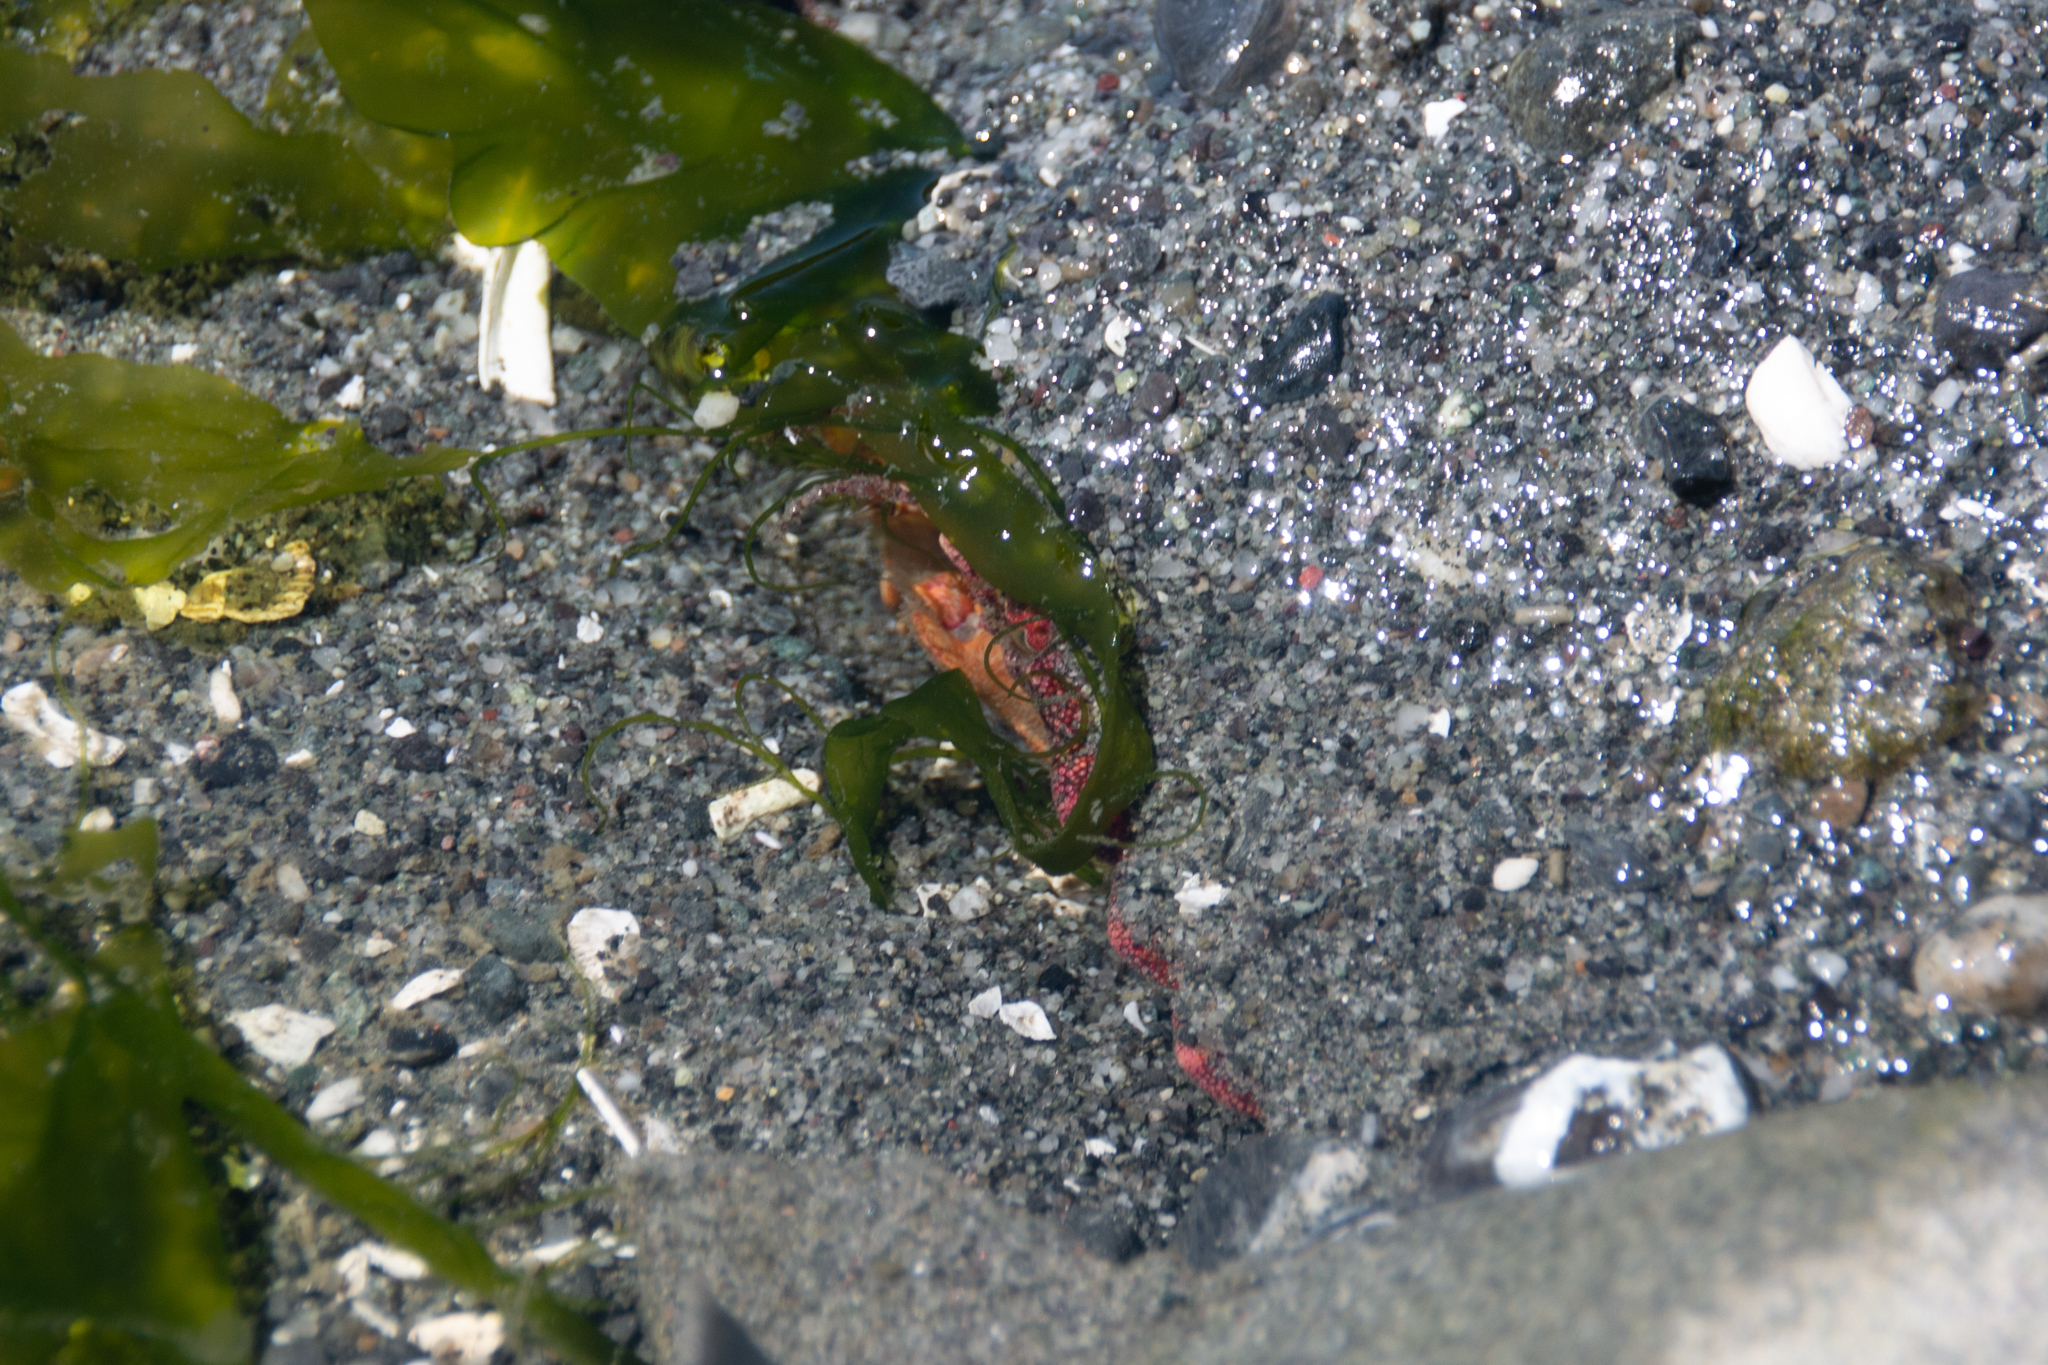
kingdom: Animalia
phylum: Arthropoda
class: Malacostraca
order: Decapoda
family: Cancridae
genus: Cancer
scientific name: Cancer productus
